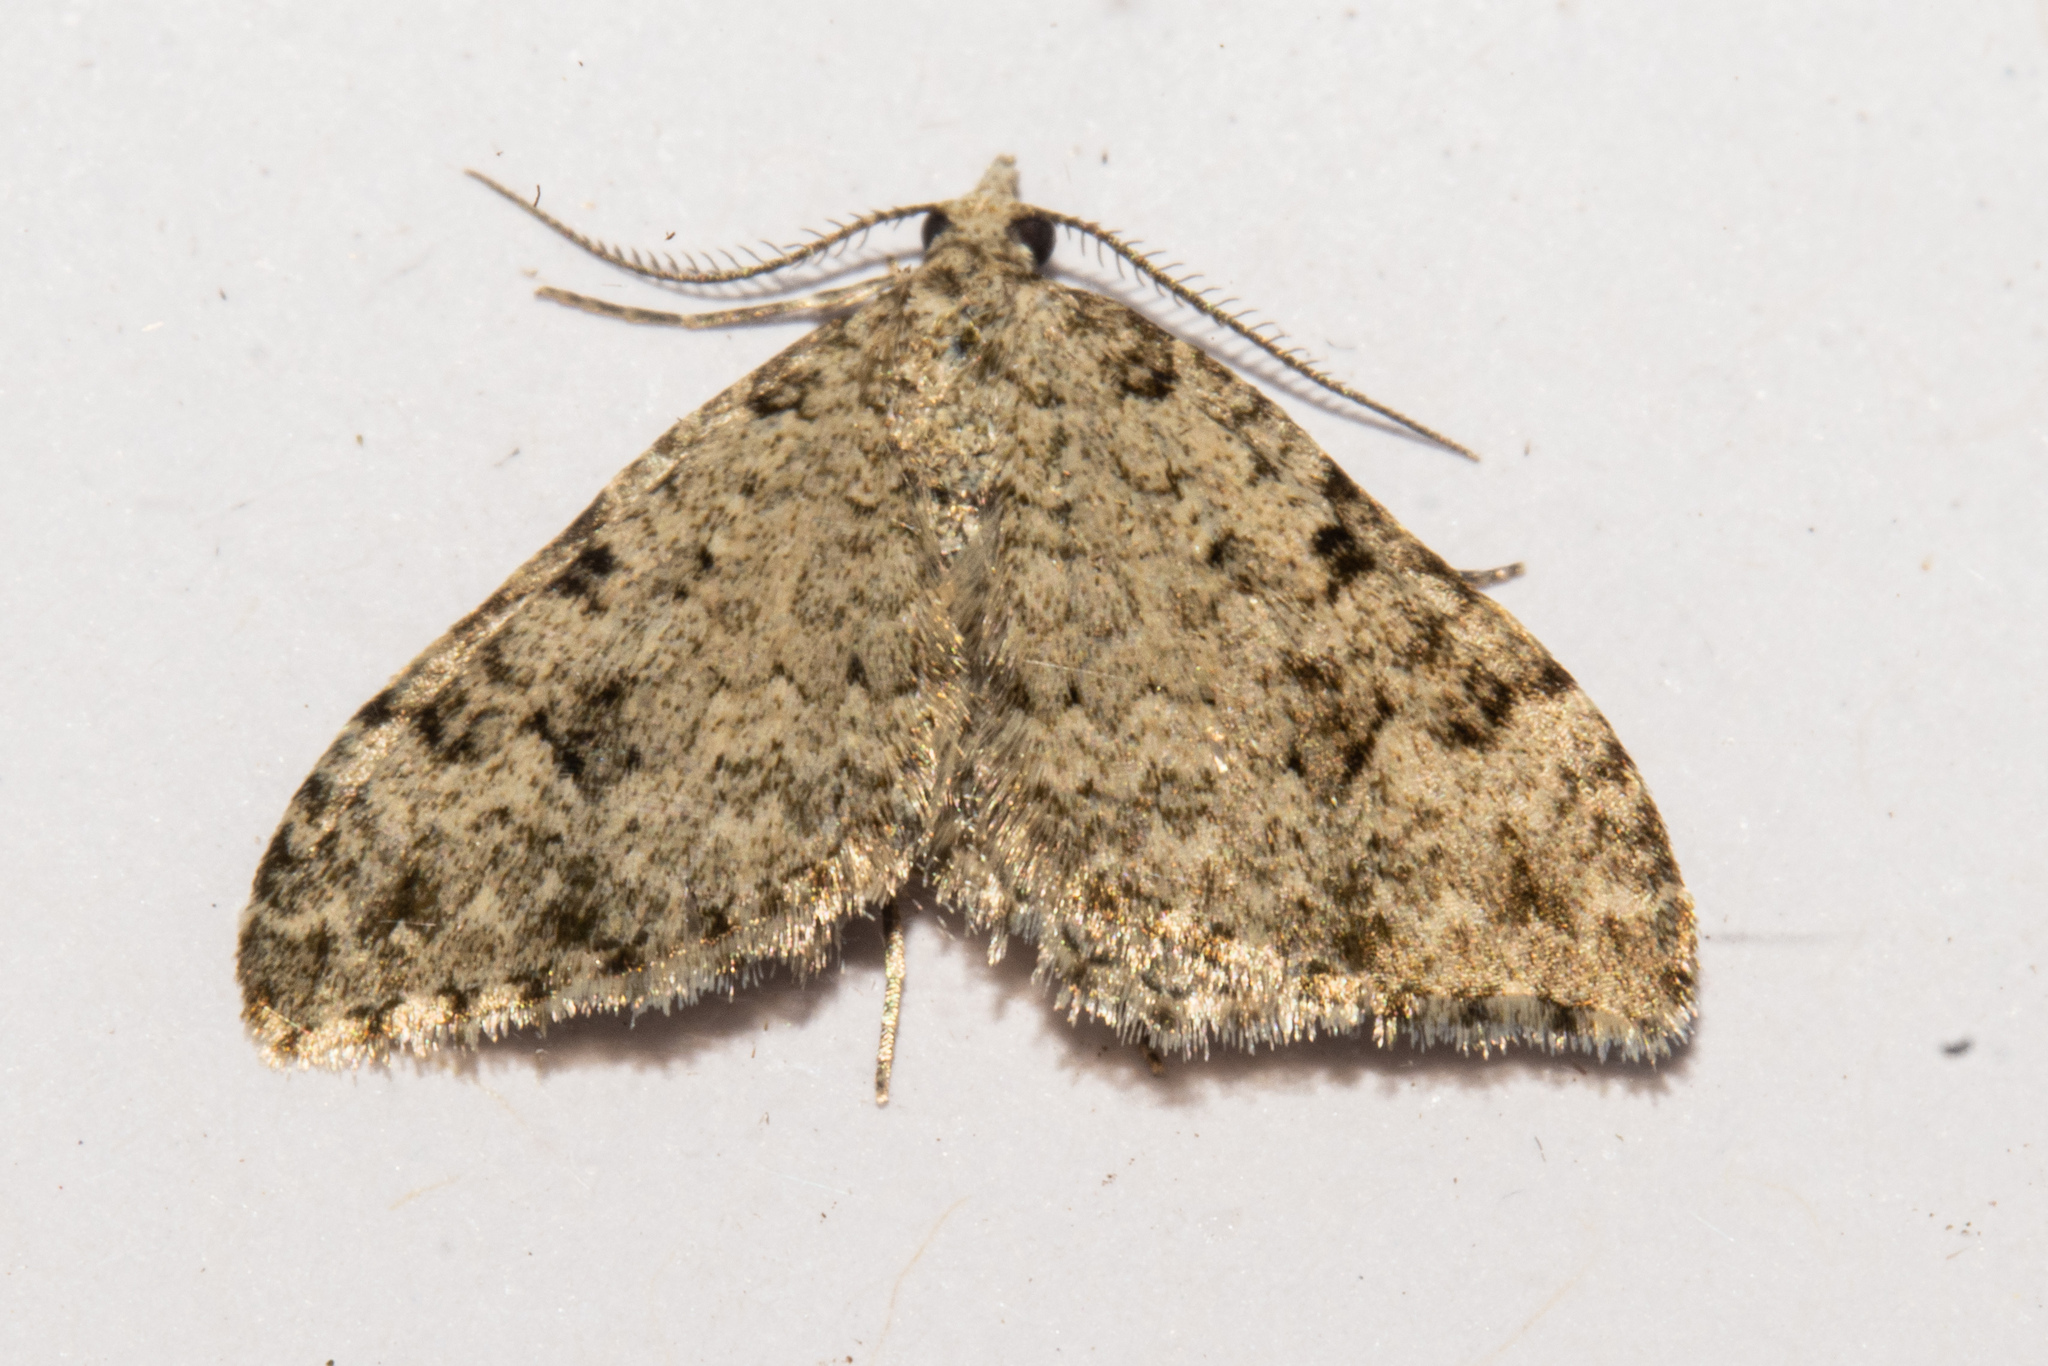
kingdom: Animalia
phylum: Arthropoda
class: Insecta
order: Lepidoptera
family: Geometridae
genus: Helastia
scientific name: Helastia cinerearia
